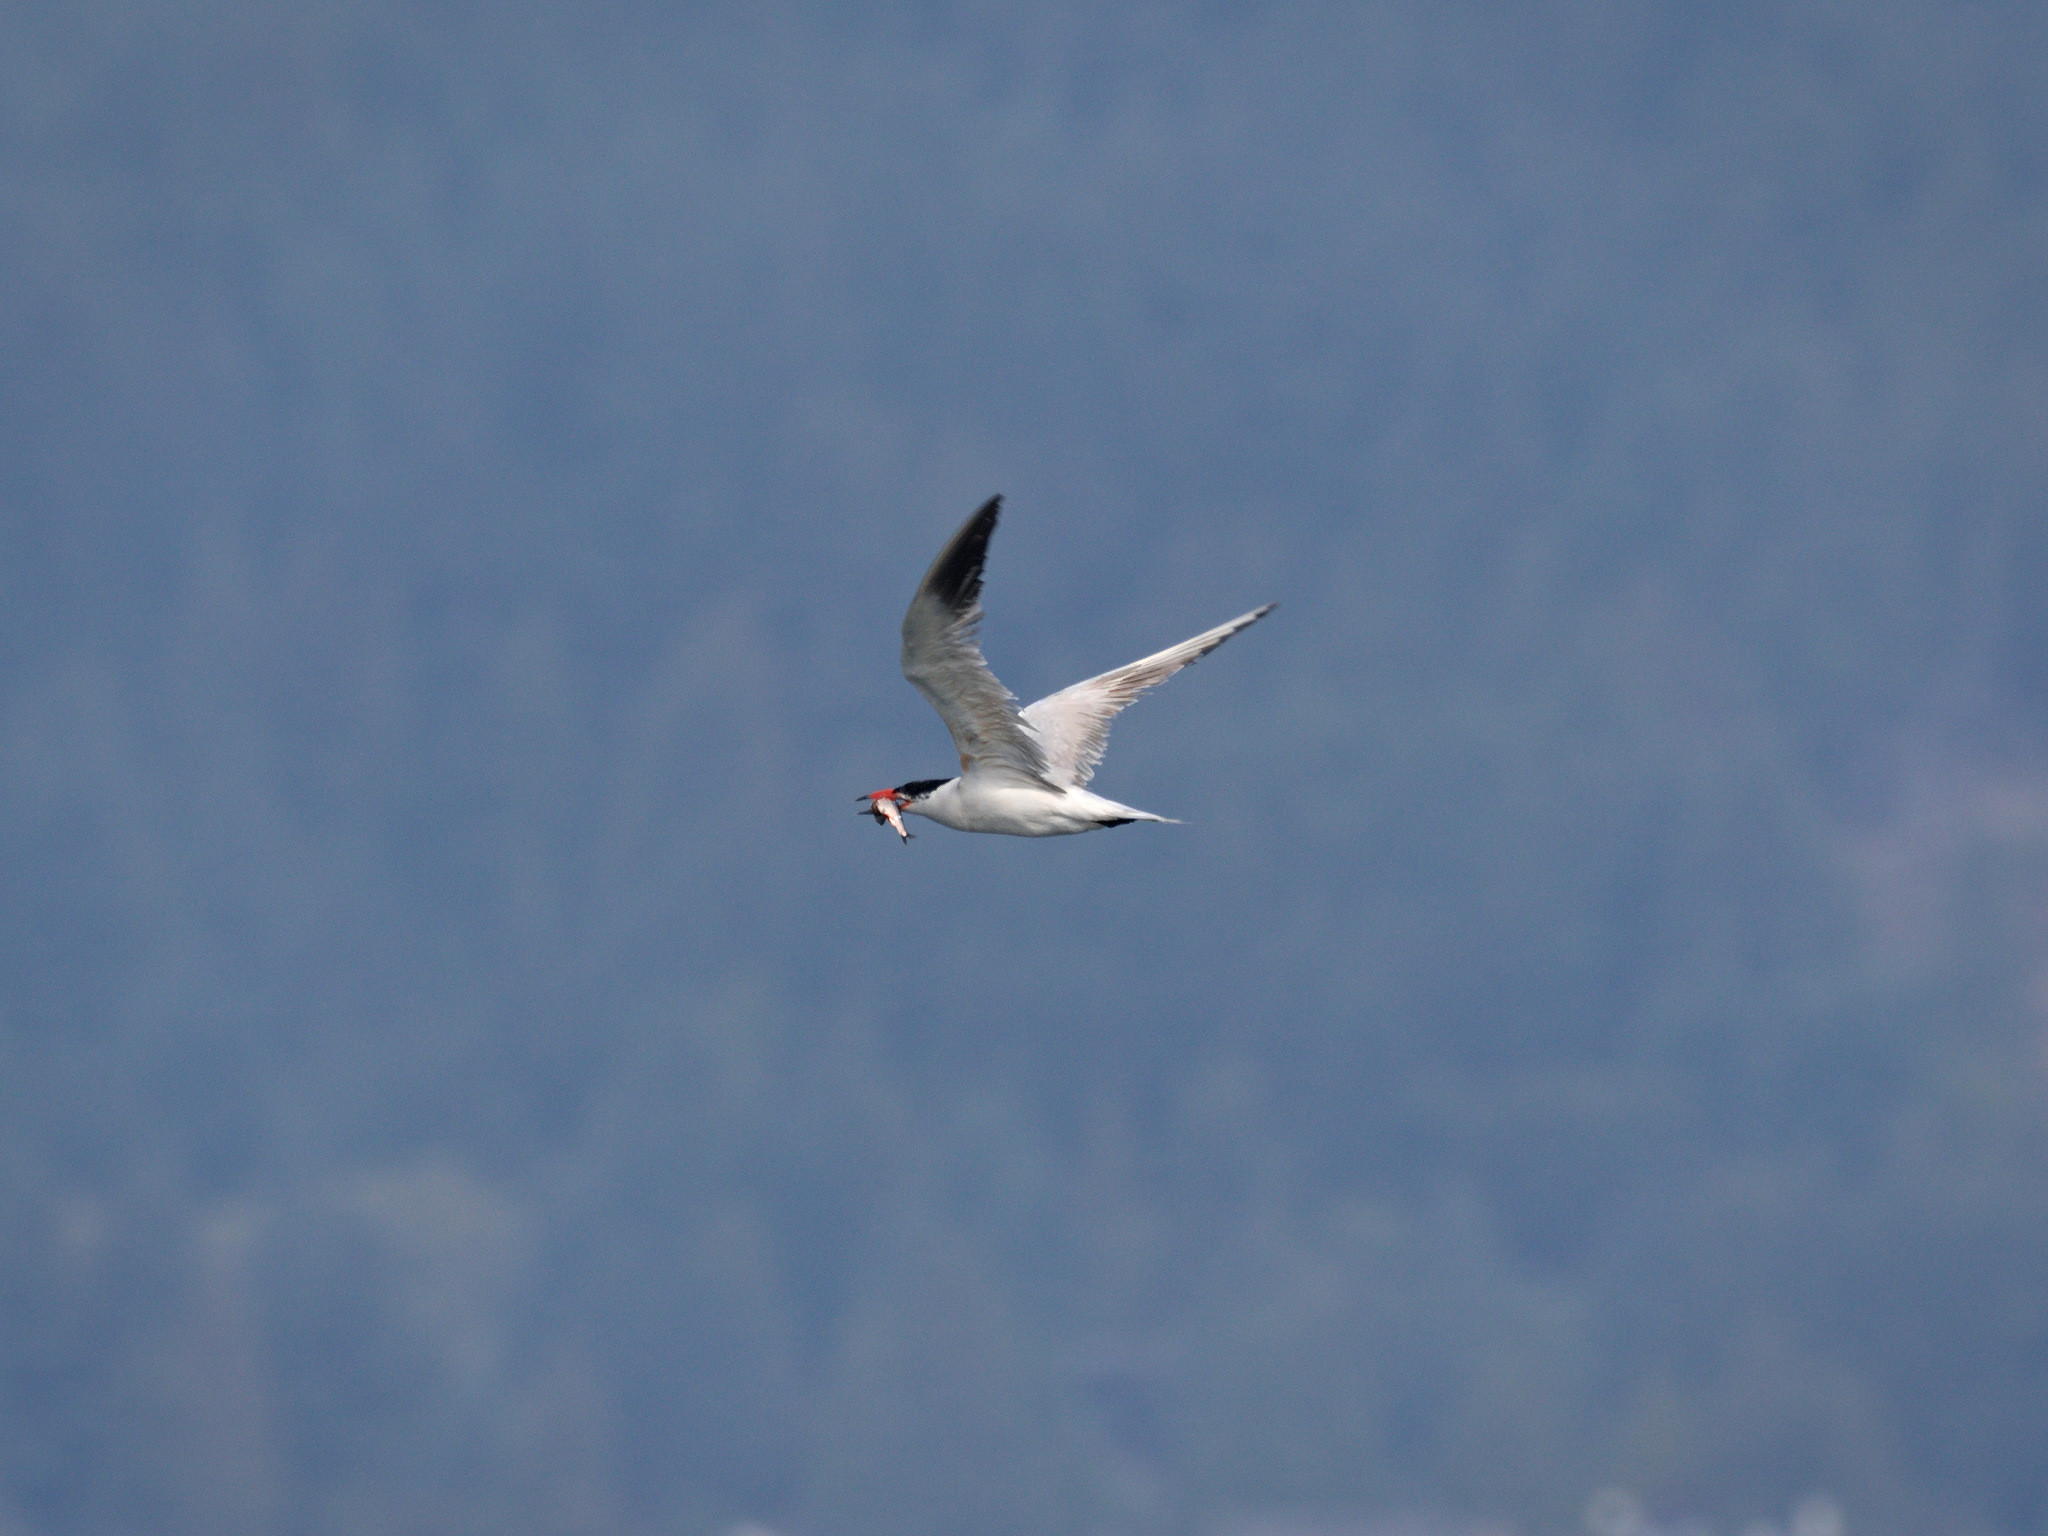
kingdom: Animalia
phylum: Chordata
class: Aves
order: Charadriiformes
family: Laridae
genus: Hydroprogne
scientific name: Hydroprogne caspia
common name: Caspian tern
